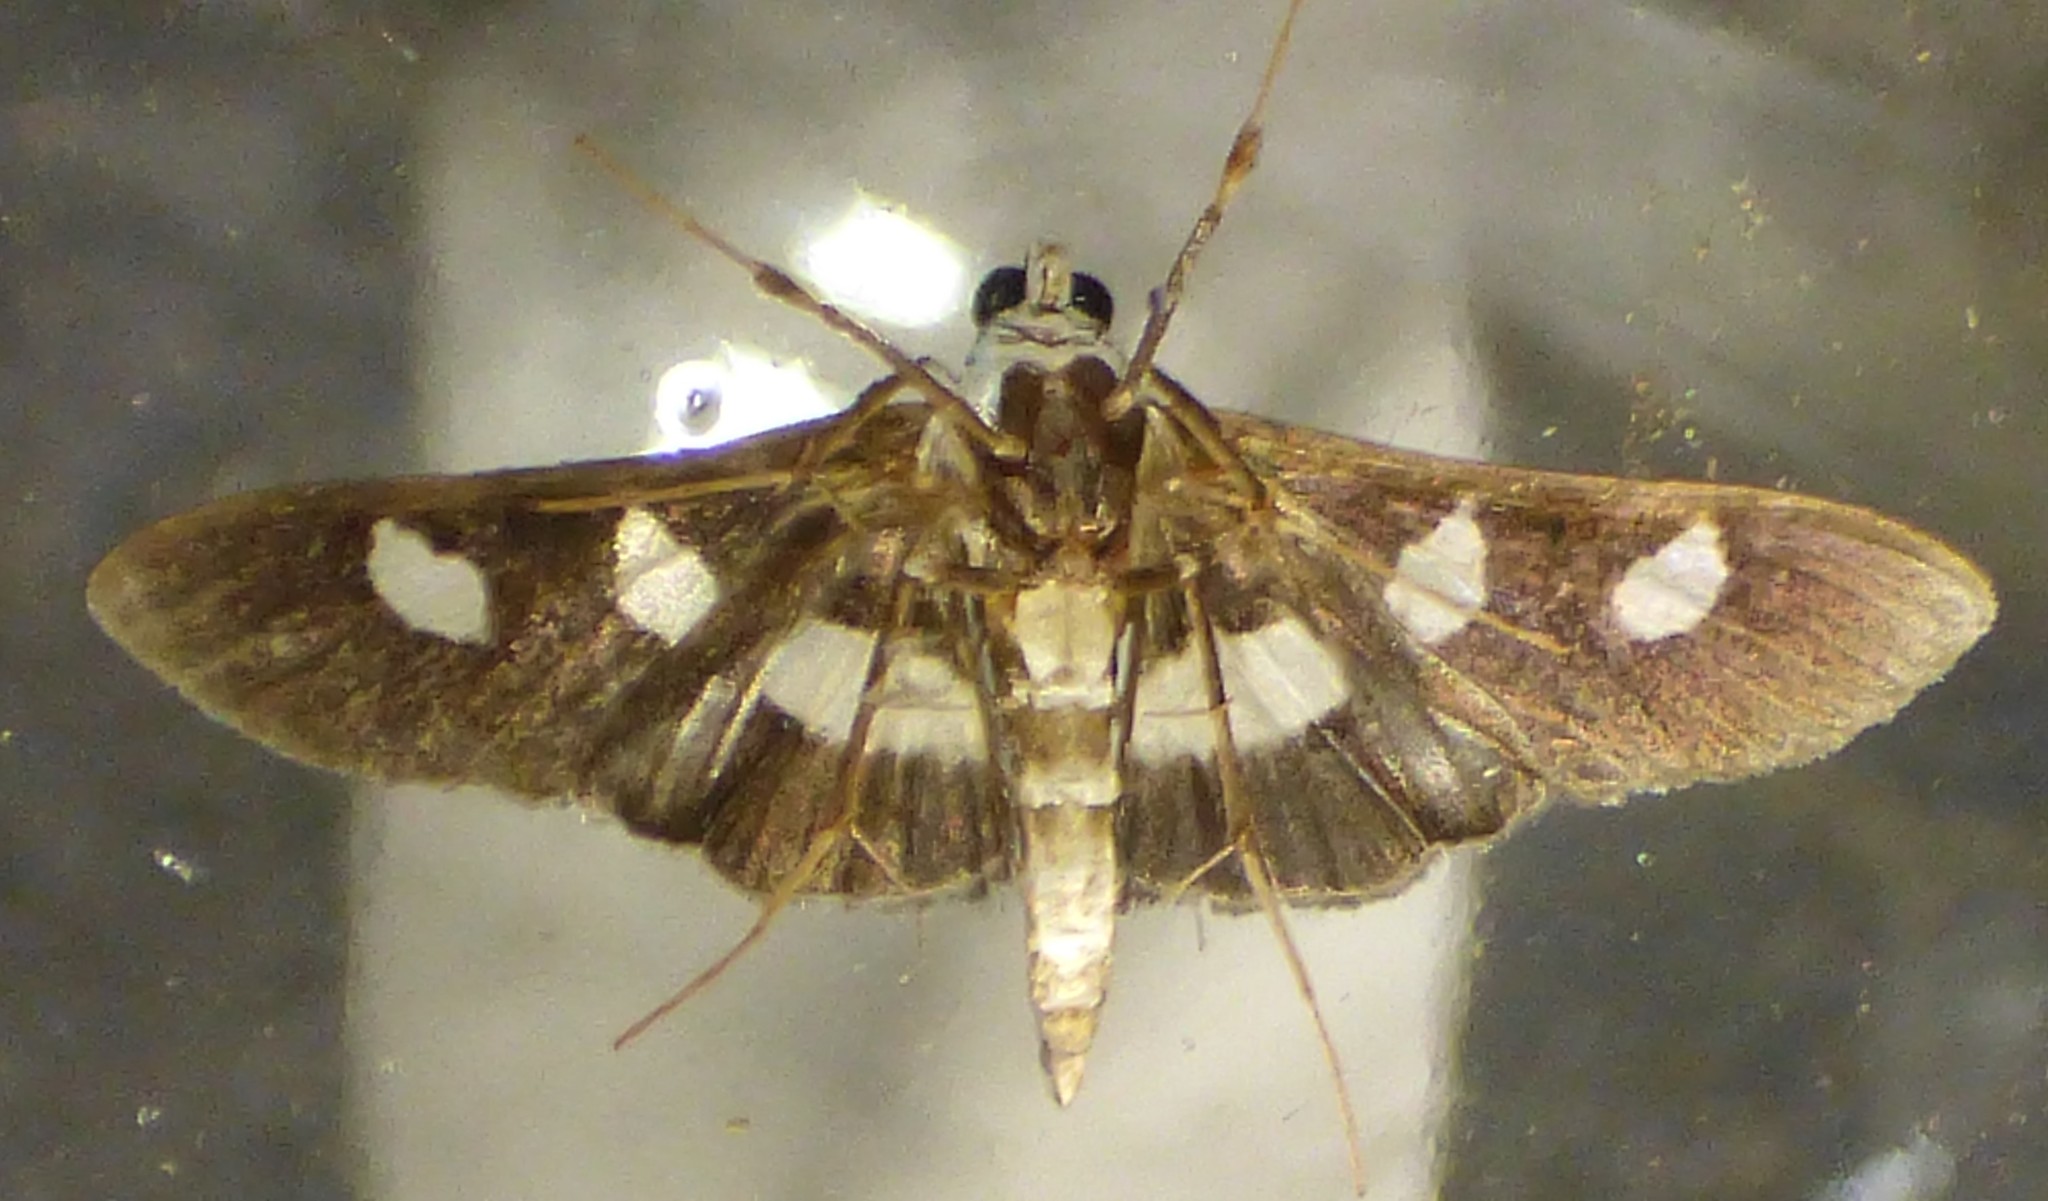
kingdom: Animalia
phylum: Arthropoda
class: Insecta
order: Lepidoptera
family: Crambidae
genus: Desmia
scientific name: Desmia funeralis
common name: Grape leaf folder moth
